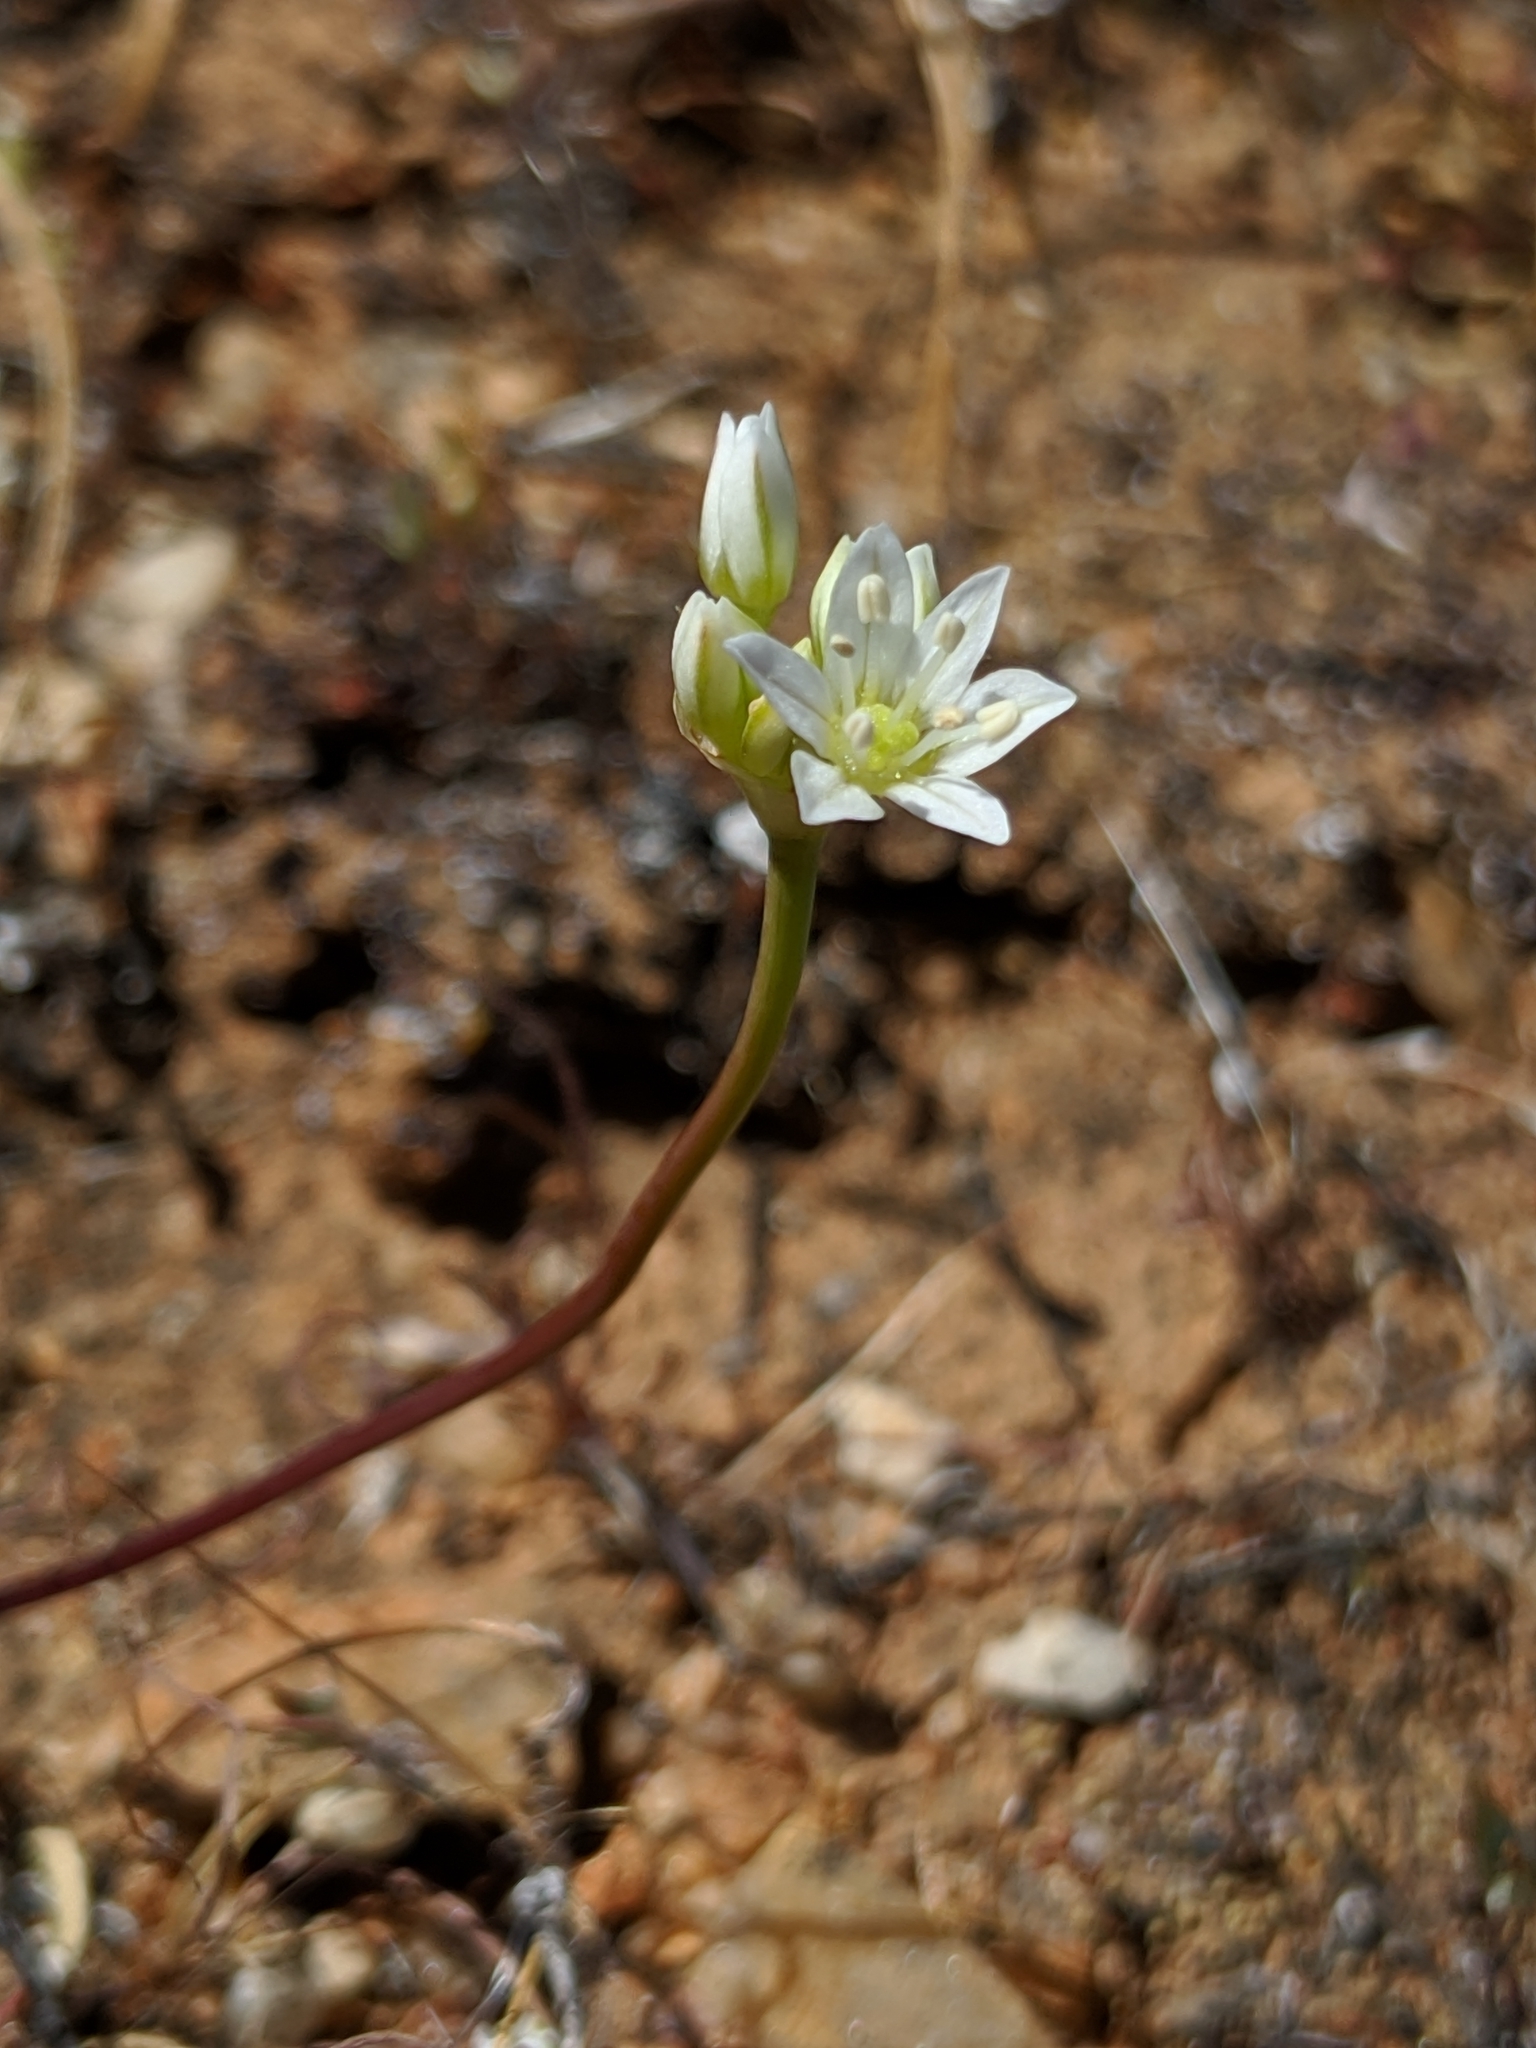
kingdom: Plantae
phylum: Tracheophyta
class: Liliopsida
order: Asparagales
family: Amaryllidaceae
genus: Allium
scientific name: Allium lacunosum
